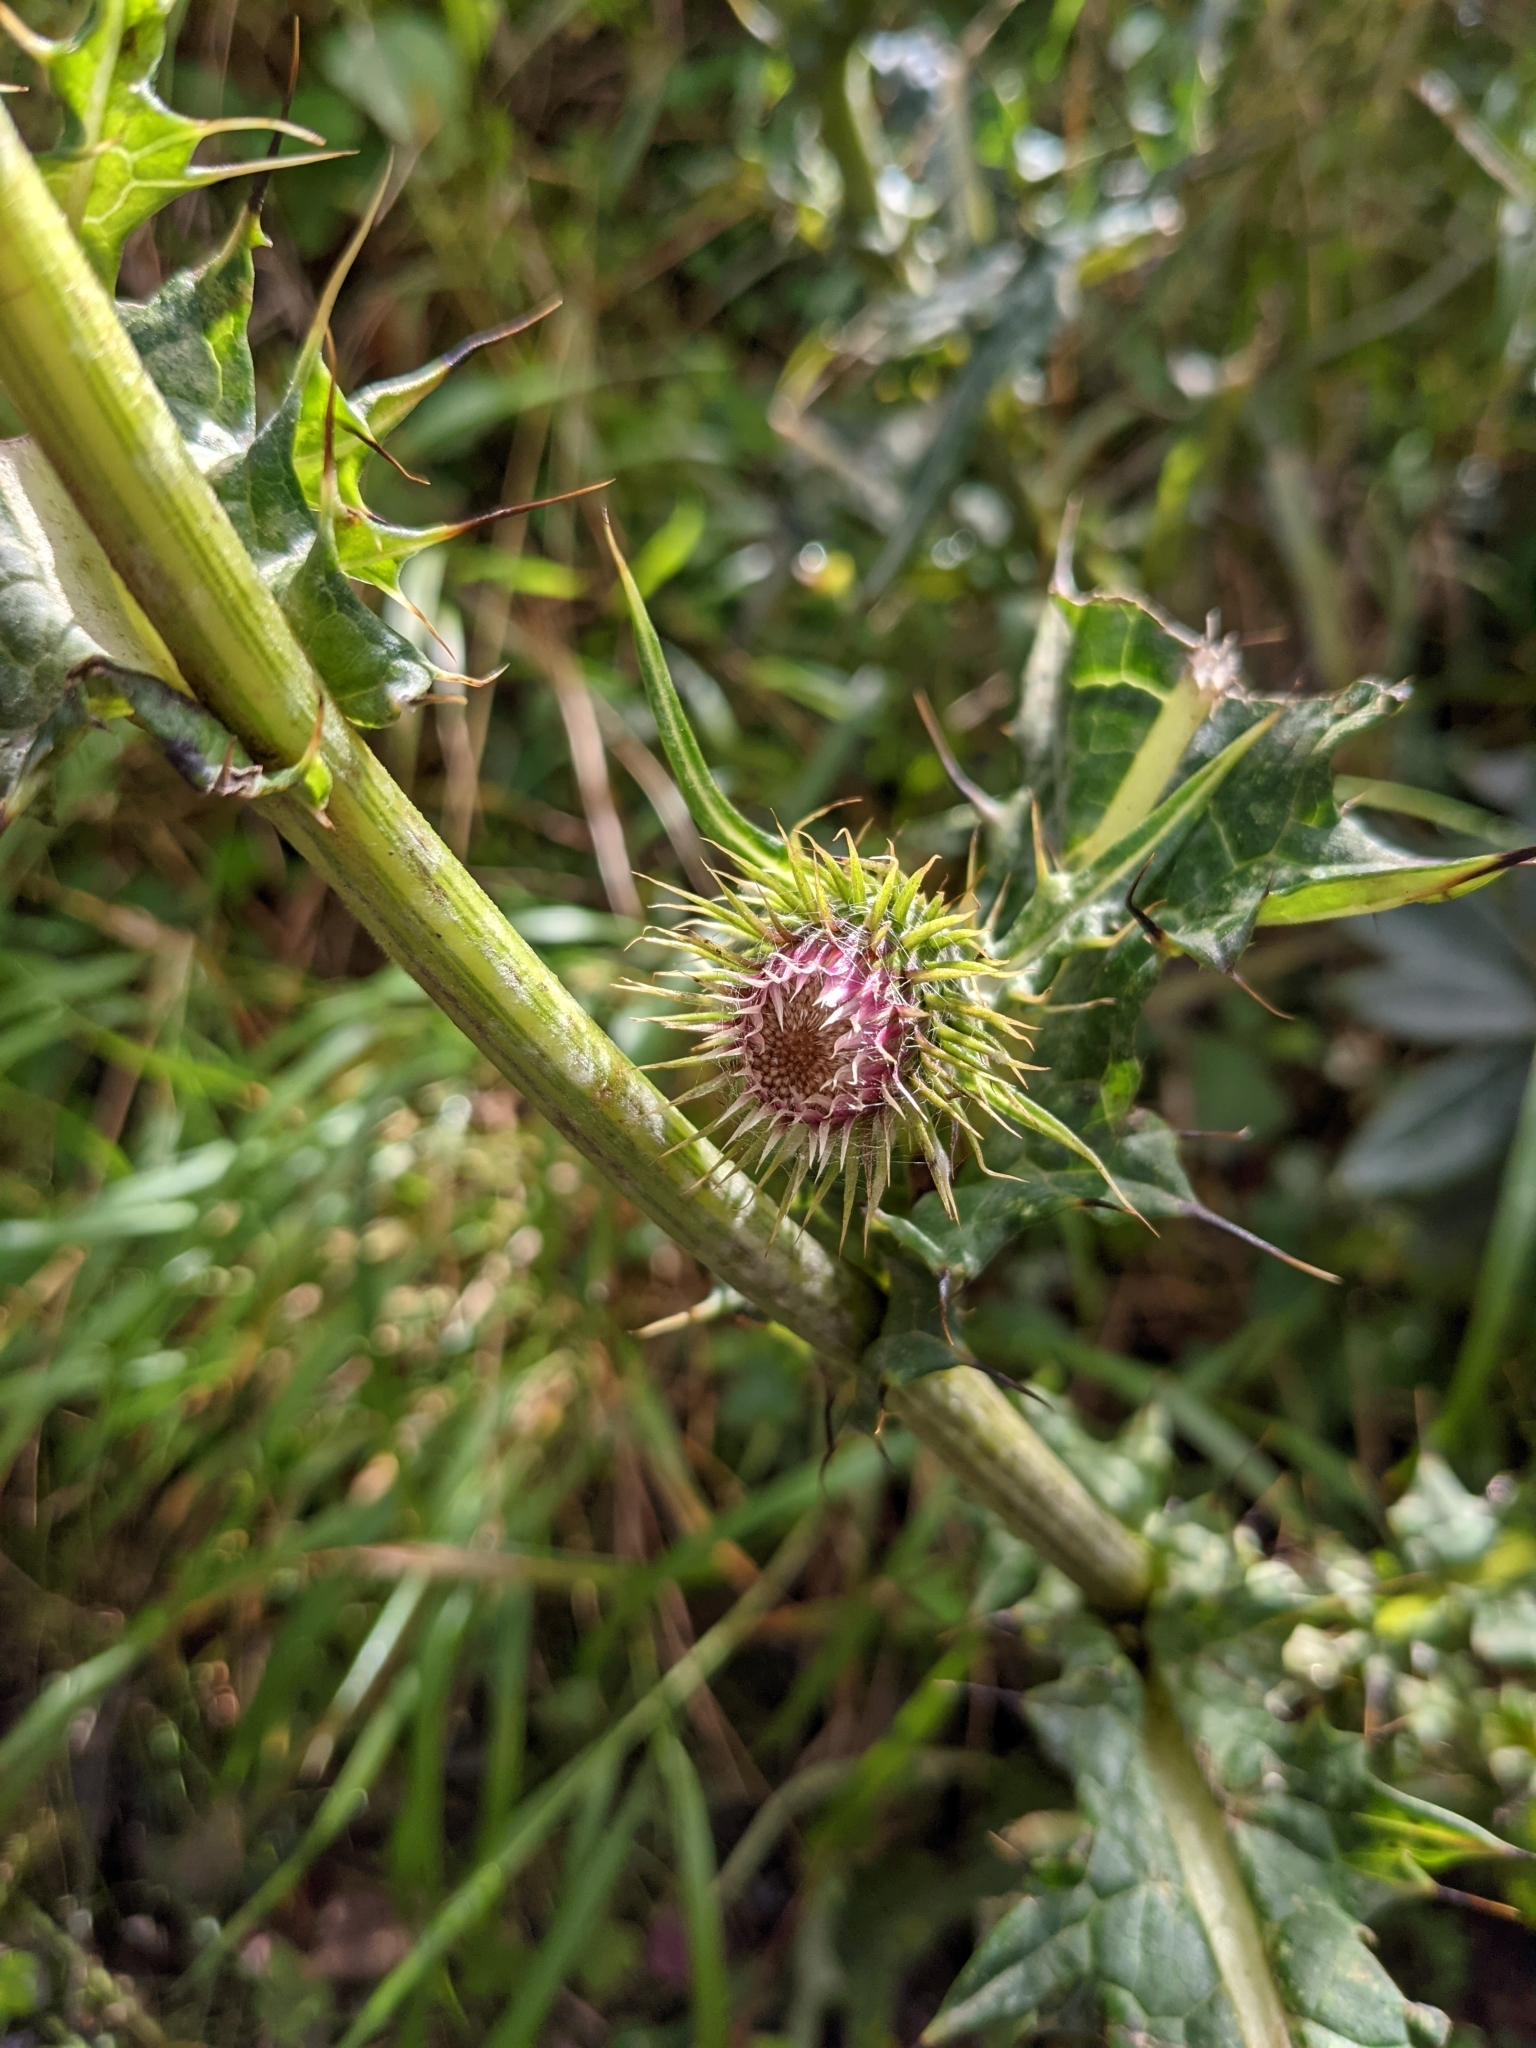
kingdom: Plantae
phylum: Tracheophyta
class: Magnoliopsida
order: Asterales
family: Asteraceae
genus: Cirsium
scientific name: Cirsium arisanense
